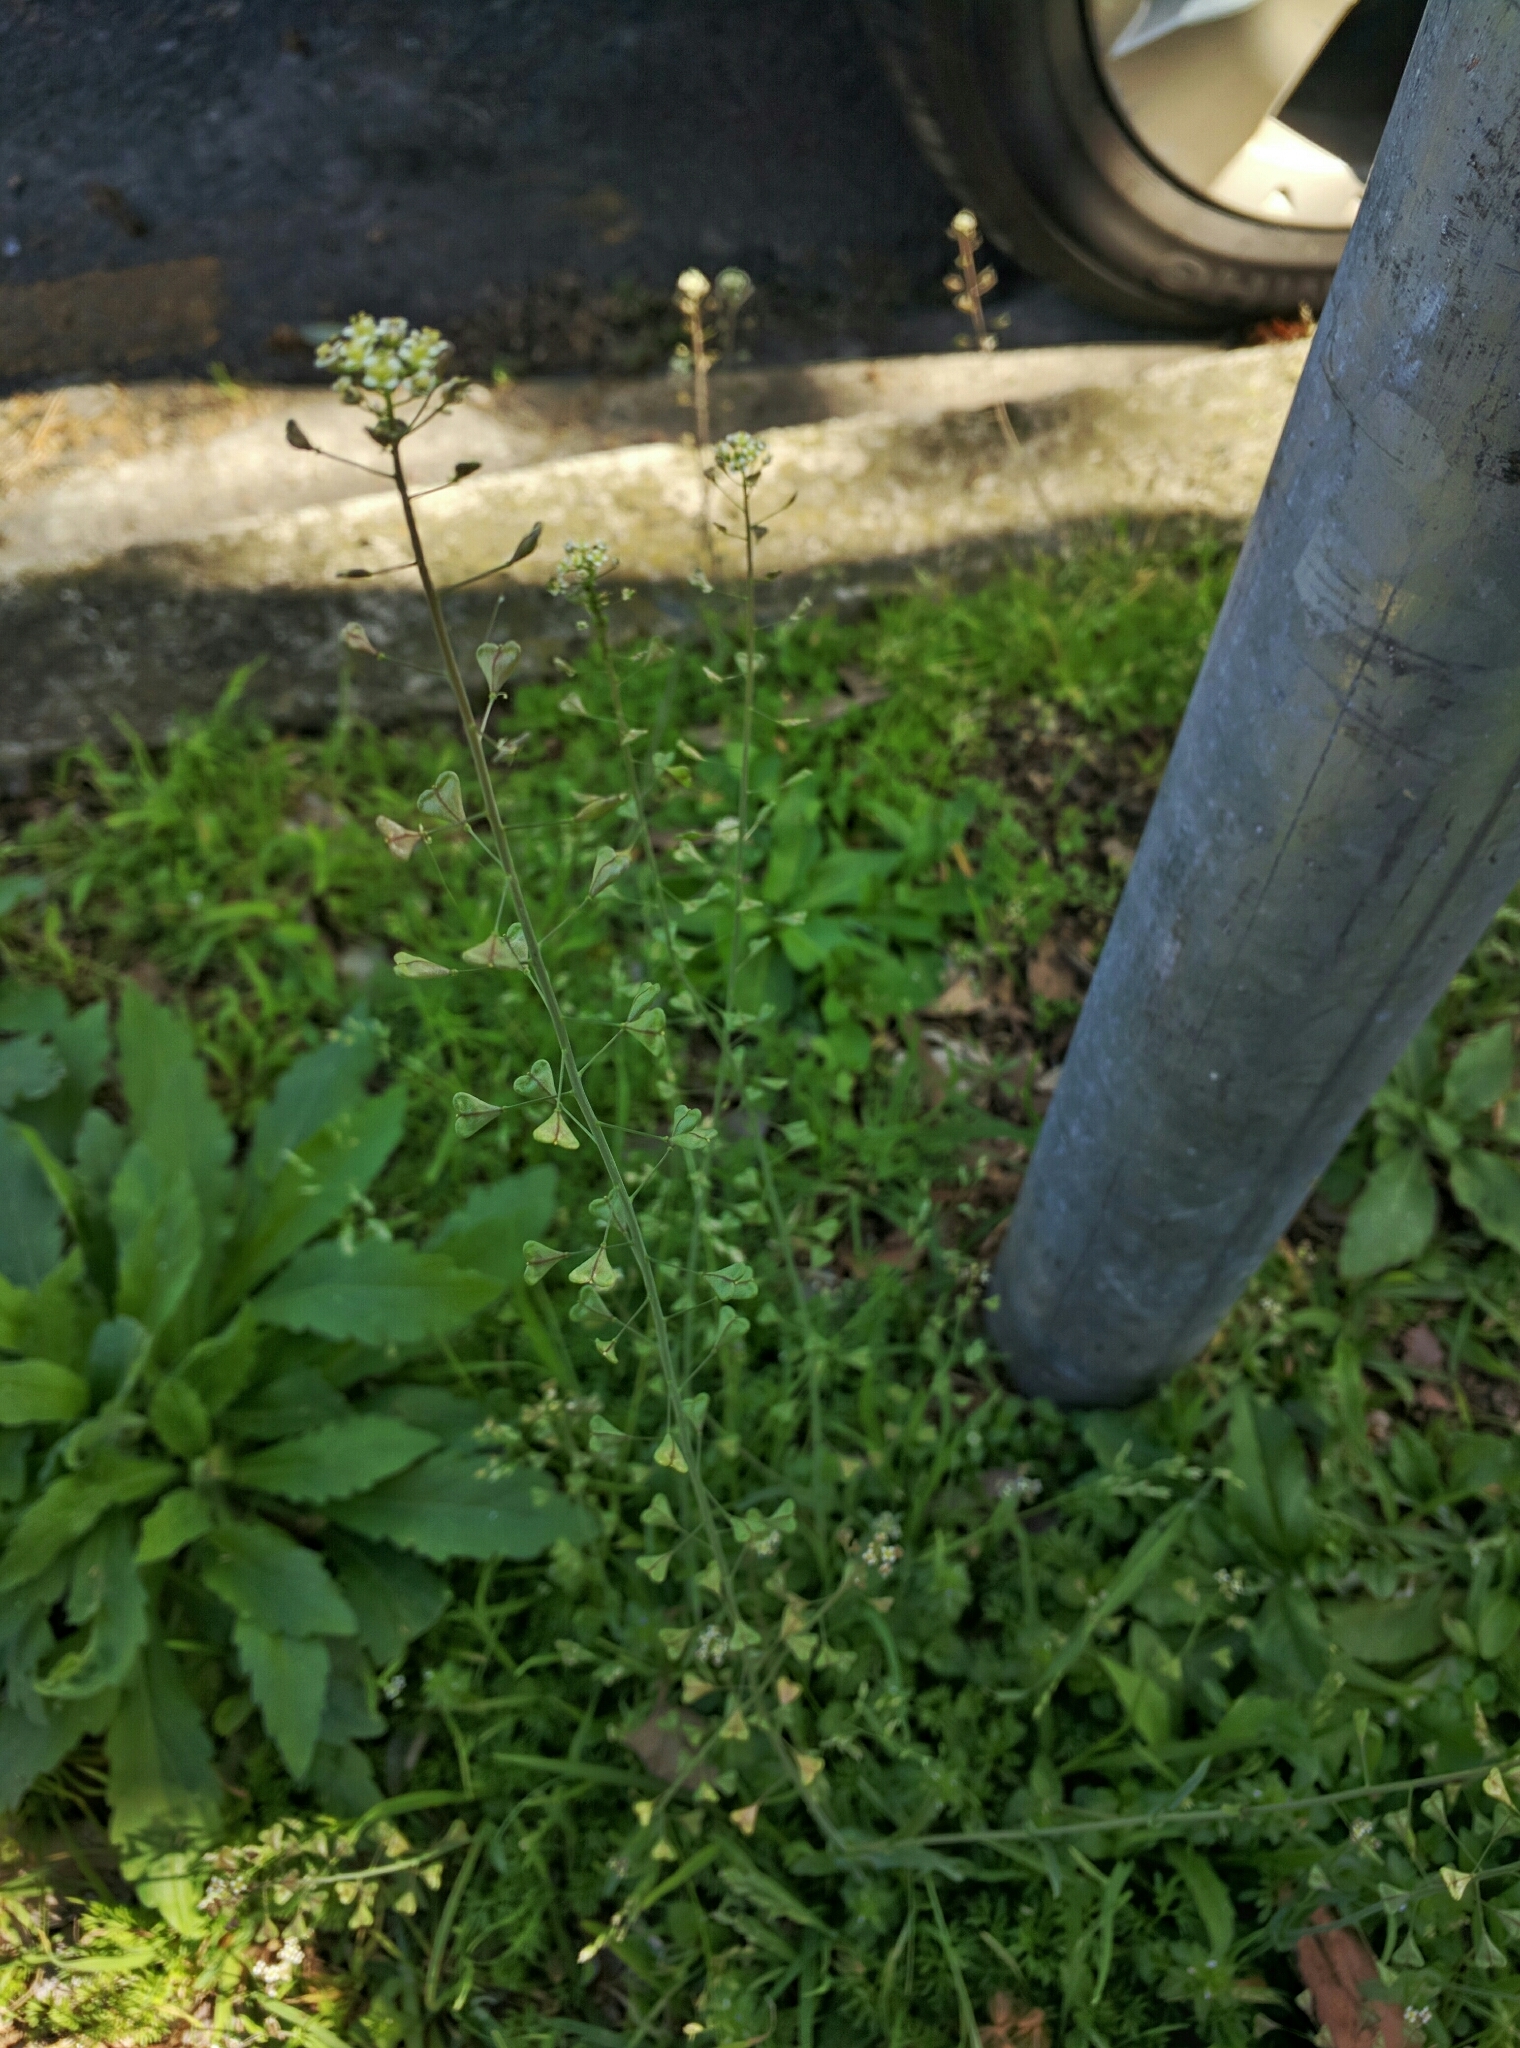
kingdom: Plantae
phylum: Tracheophyta
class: Magnoliopsida
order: Brassicales
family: Brassicaceae
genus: Capsella
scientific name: Capsella bursa-pastoris
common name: Shepherd's purse
